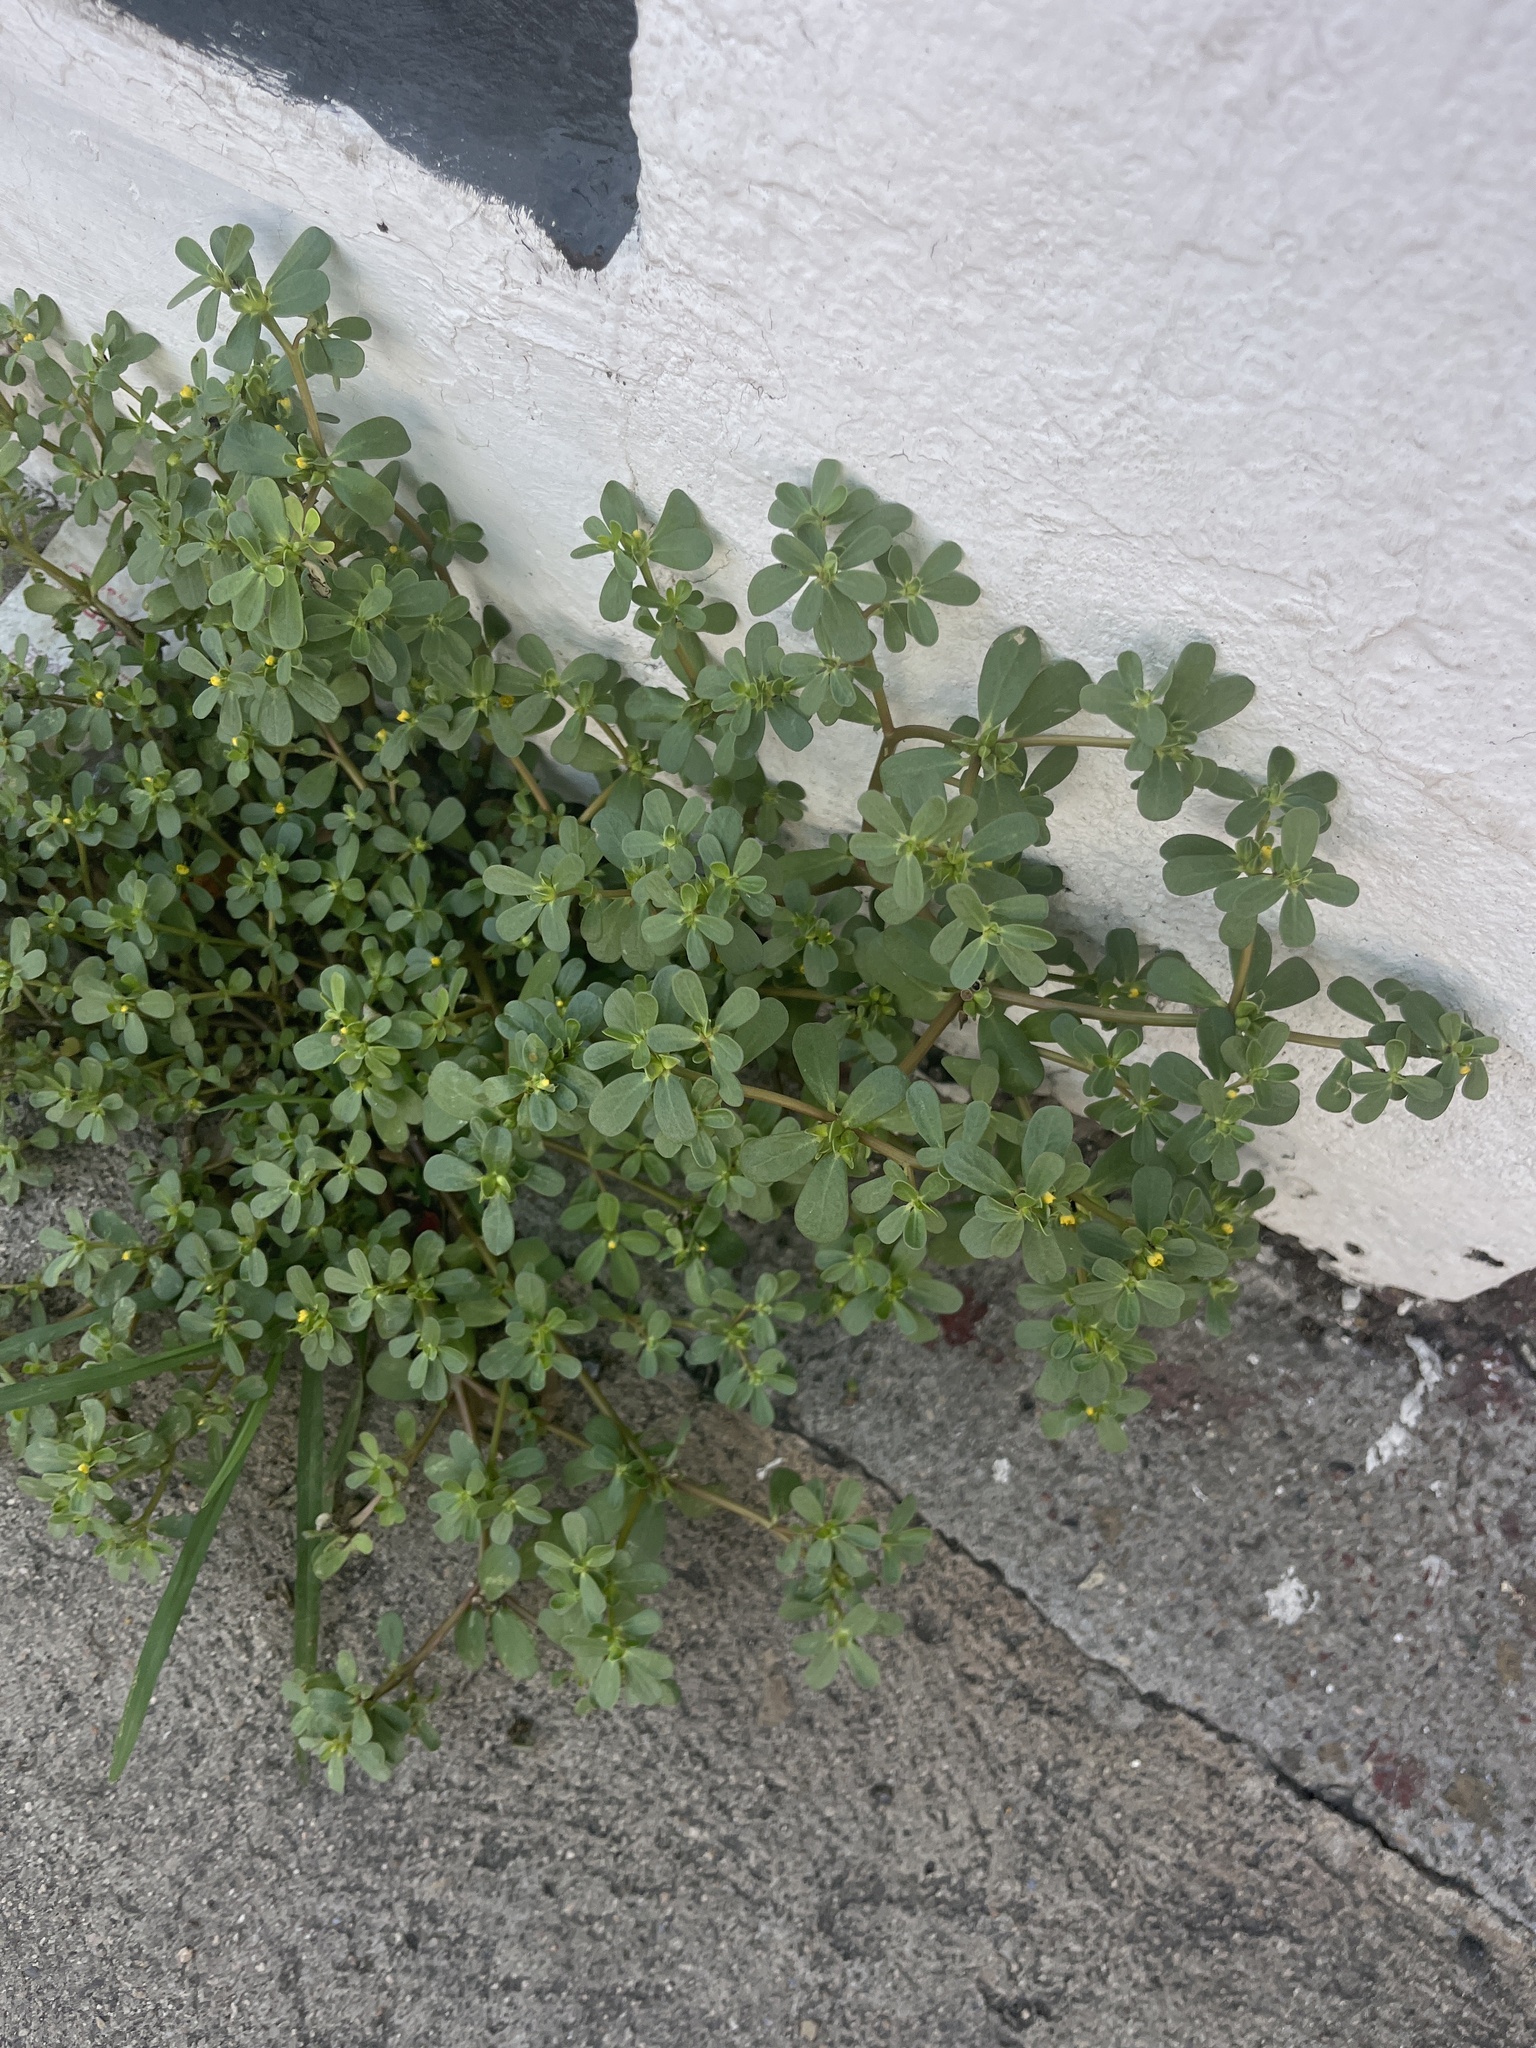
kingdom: Plantae
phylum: Tracheophyta
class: Magnoliopsida
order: Caryophyllales
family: Portulacaceae
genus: Portulaca
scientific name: Portulaca oleracea
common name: Common purslane
